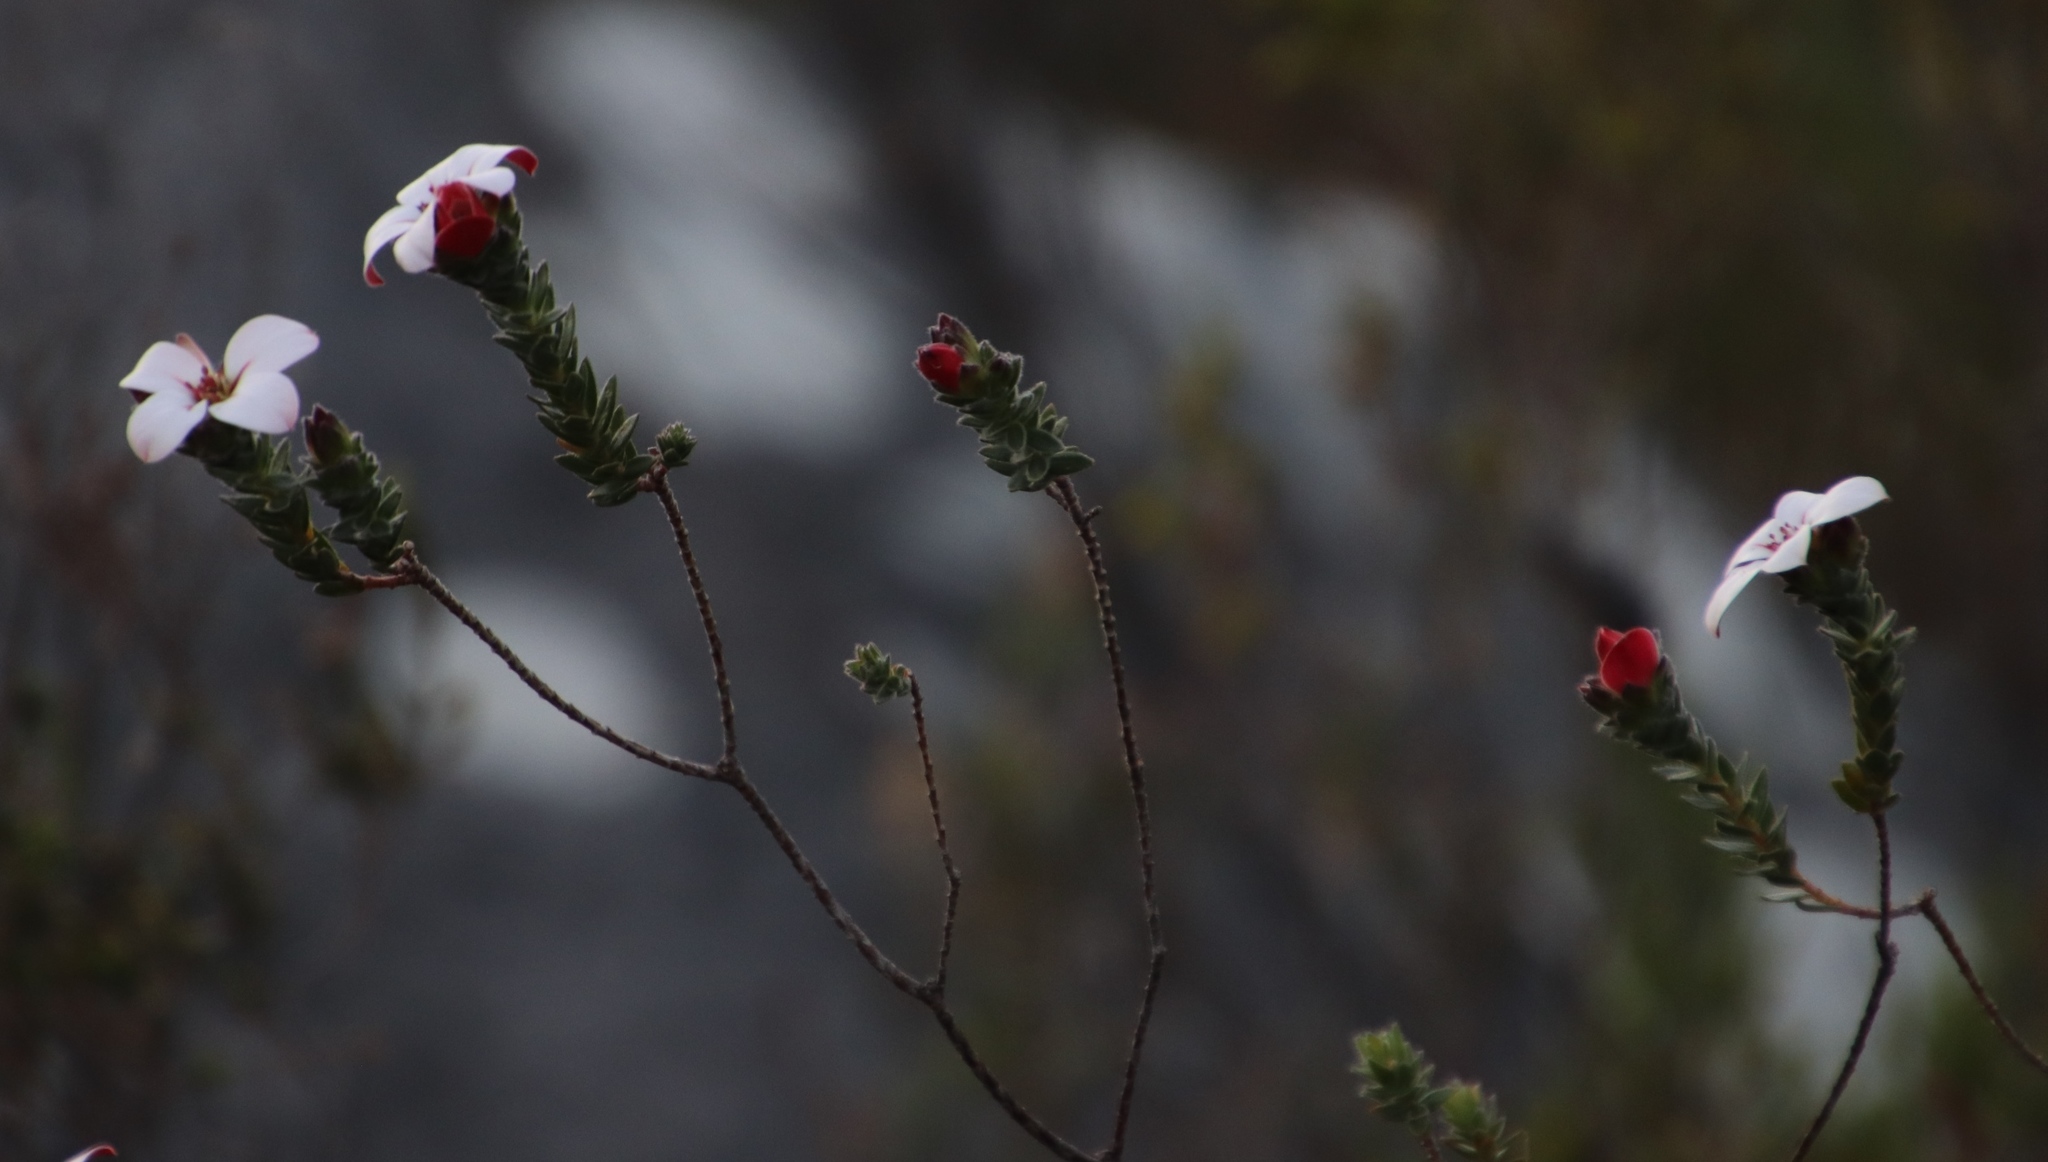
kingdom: Plantae
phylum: Tracheophyta
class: Magnoliopsida
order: Sapindales
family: Rutaceae
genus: Adenandra
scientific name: Adenandra villosa
